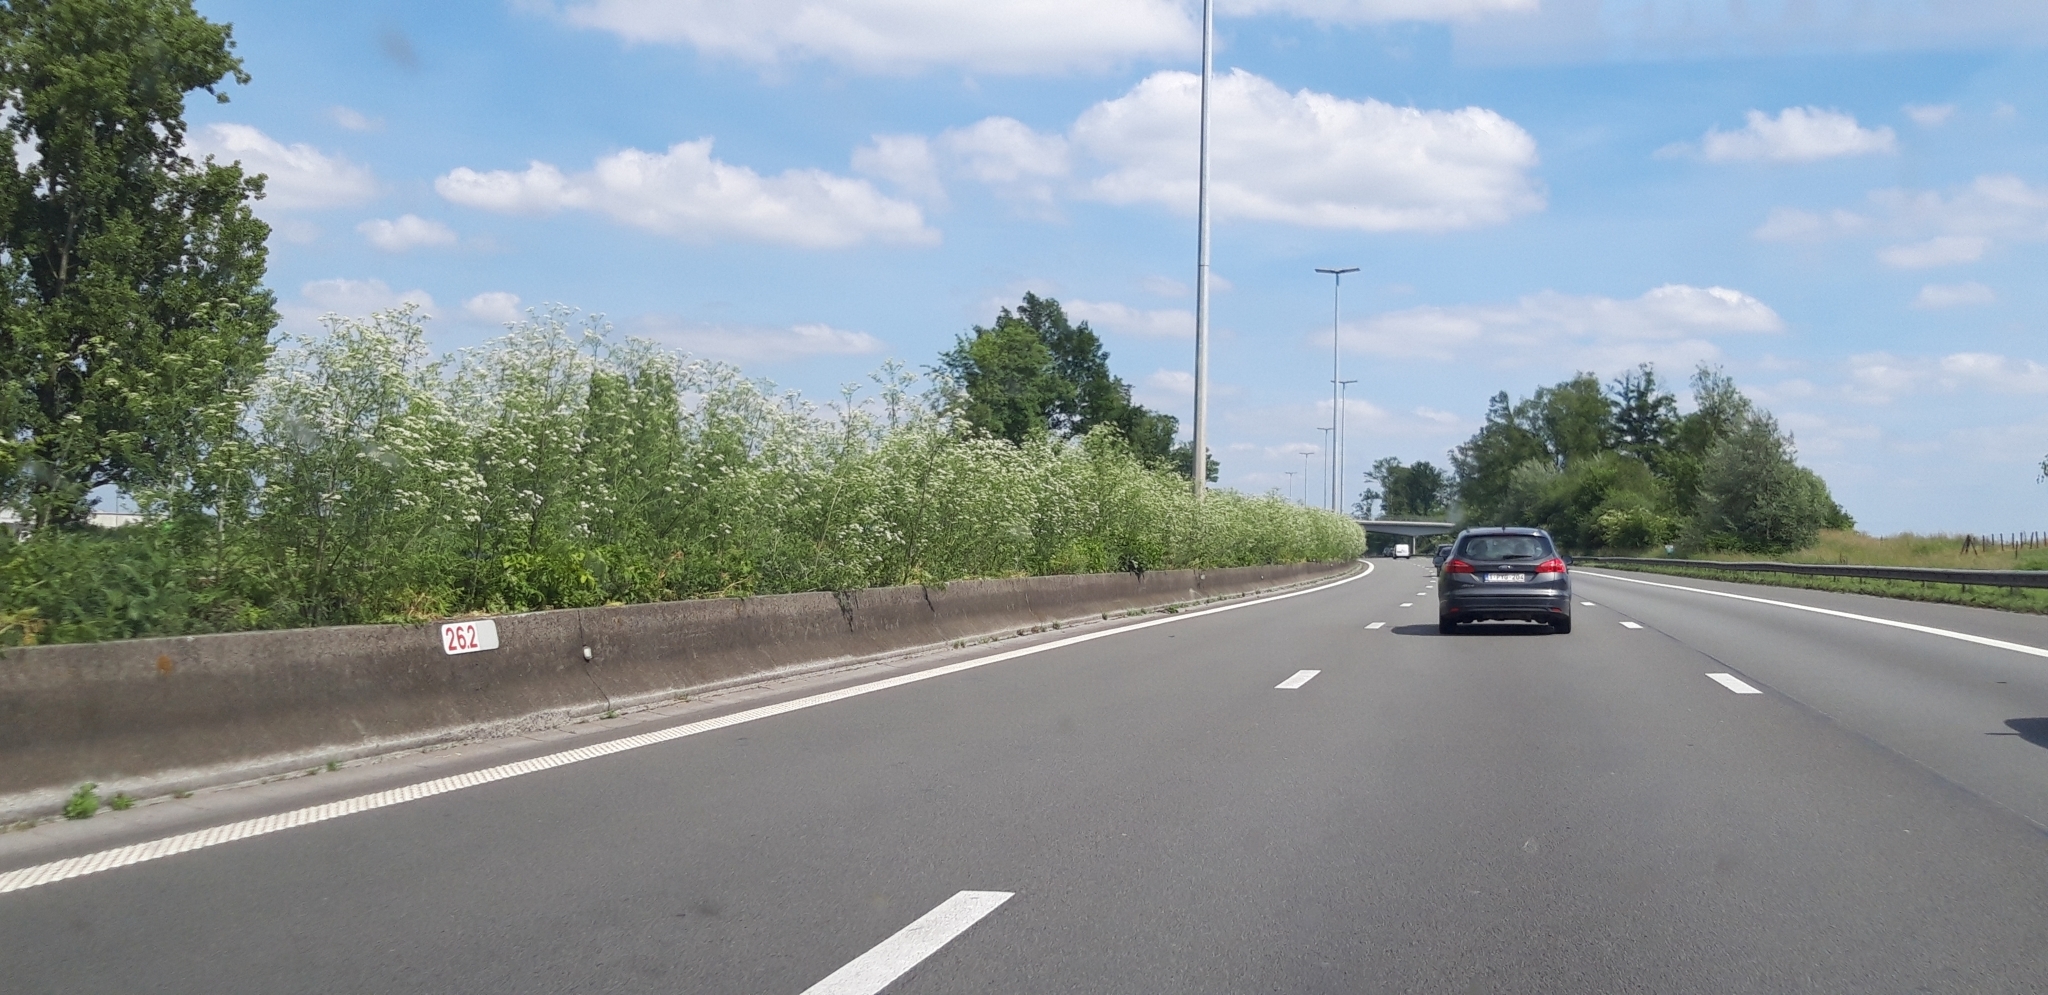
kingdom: Plantae
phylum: Tracheophyta
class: Magnoliopsida
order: Apiales
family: Apiaceae
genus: Conium
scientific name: Conium maculatum
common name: Hemlock
